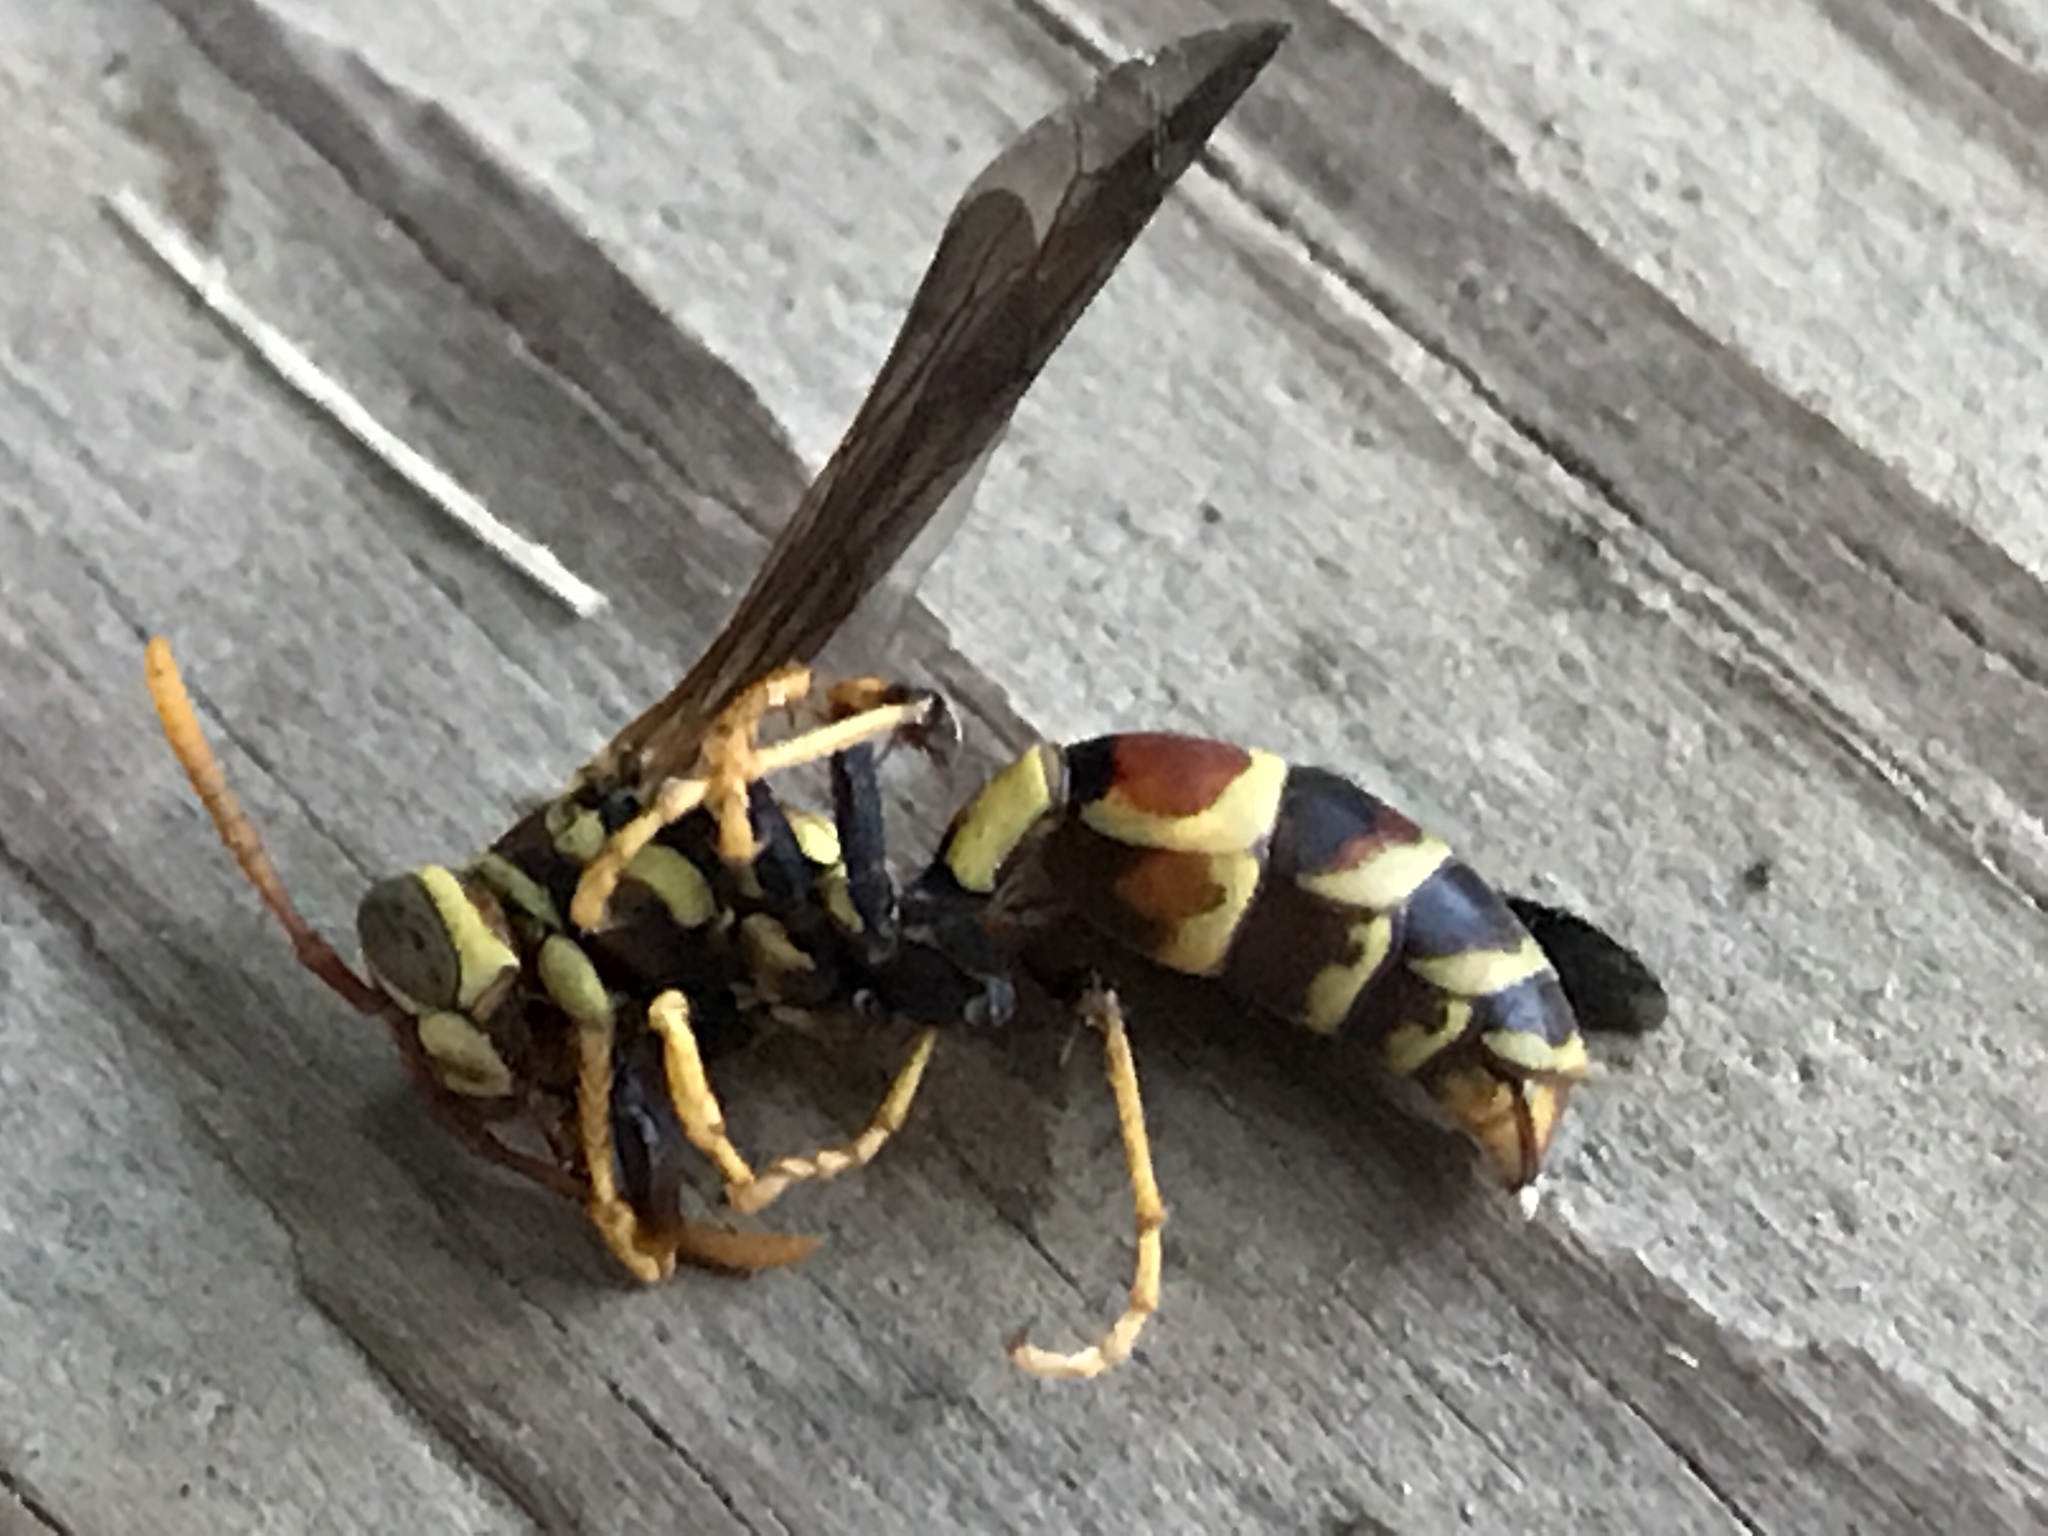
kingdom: Animalia
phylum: Arthropoda
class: Insecta
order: Hymenoptera
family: Eumenidae
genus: Polistes
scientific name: Polistes exclamans
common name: Paper wasp
